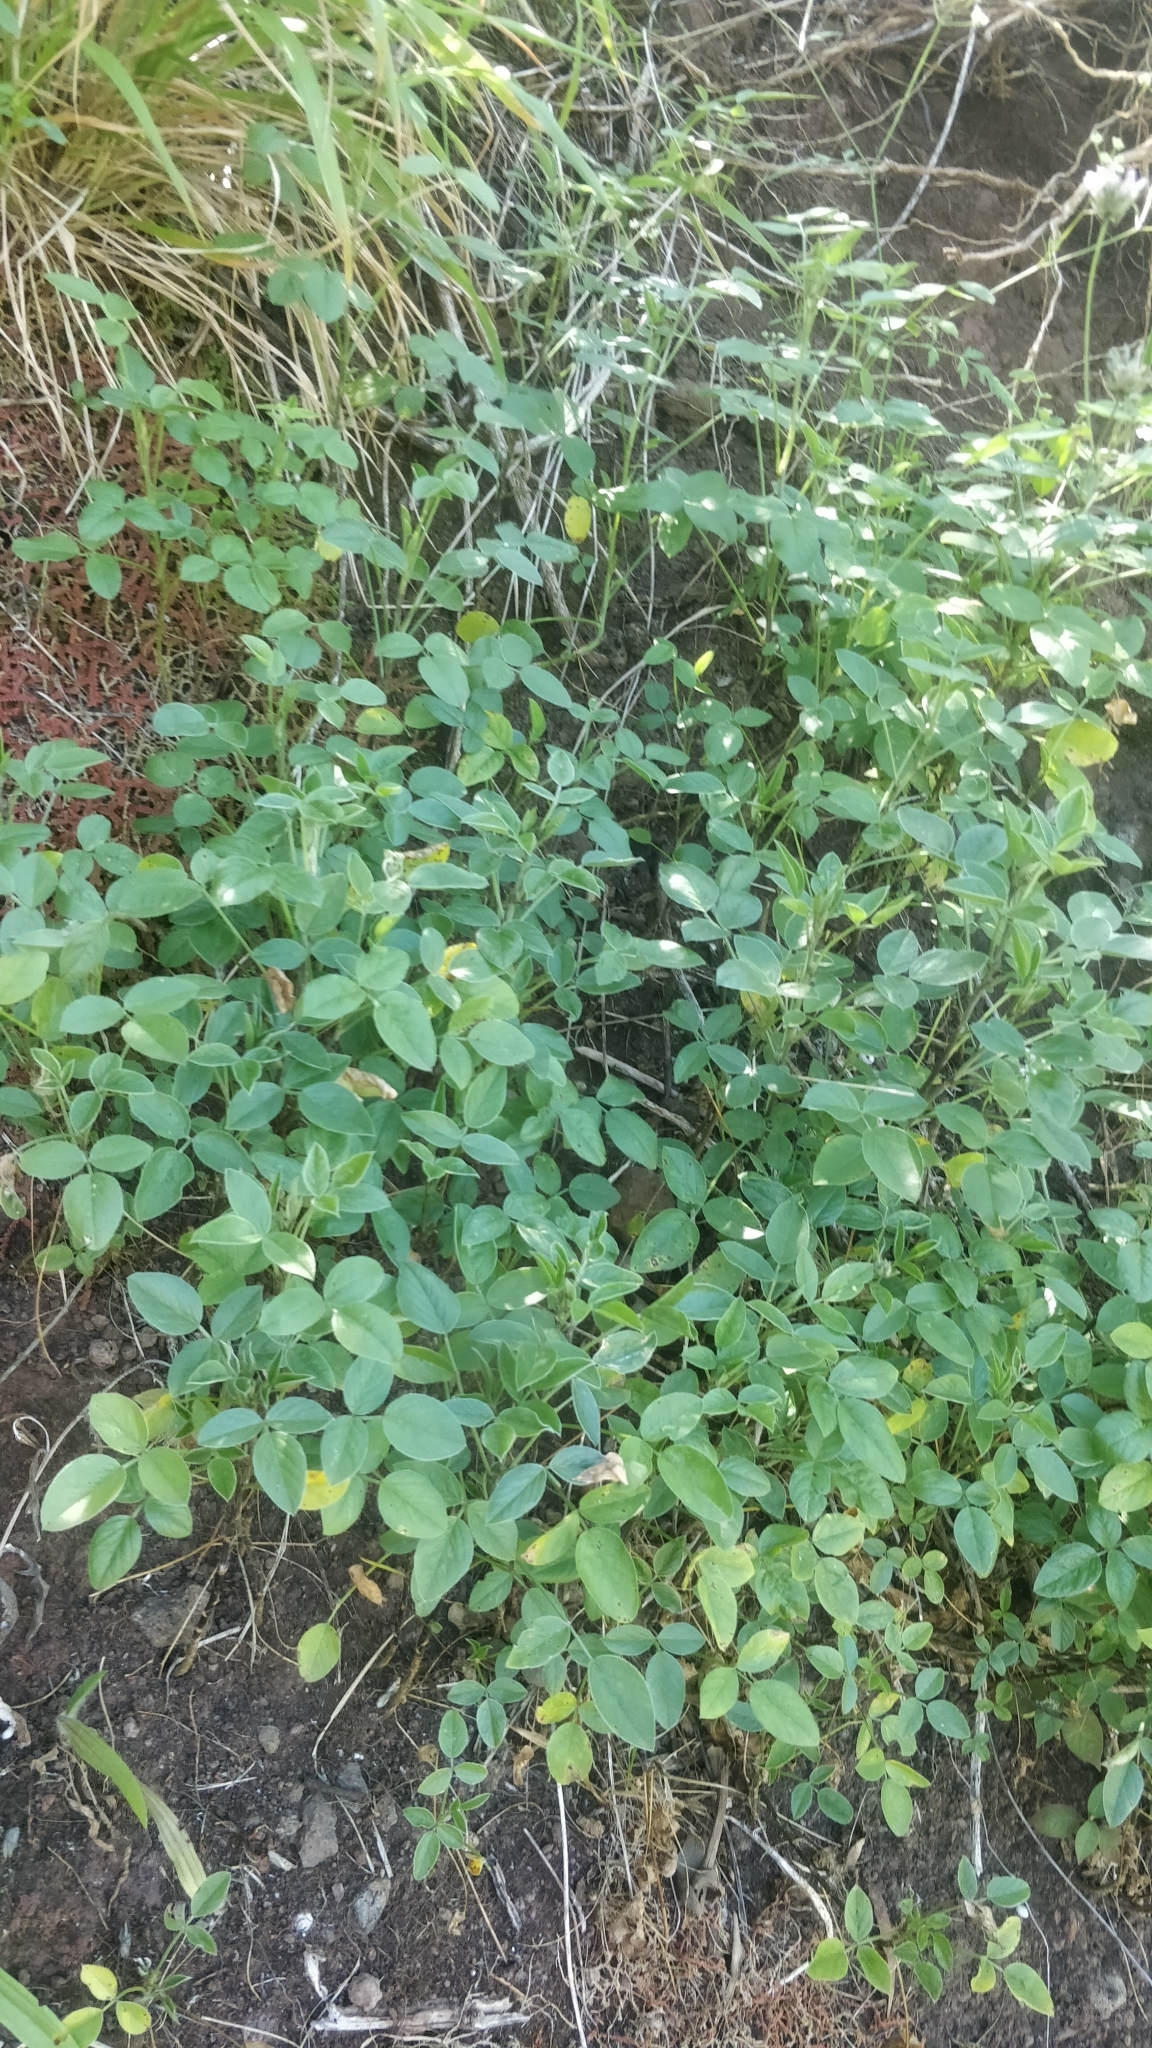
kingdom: Plantae
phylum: Tracheophyta
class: Magnoliopsida
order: Fabales
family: Fabaceae
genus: Bituminaria
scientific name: Bituminaria bituminosa
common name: Arabian pea
